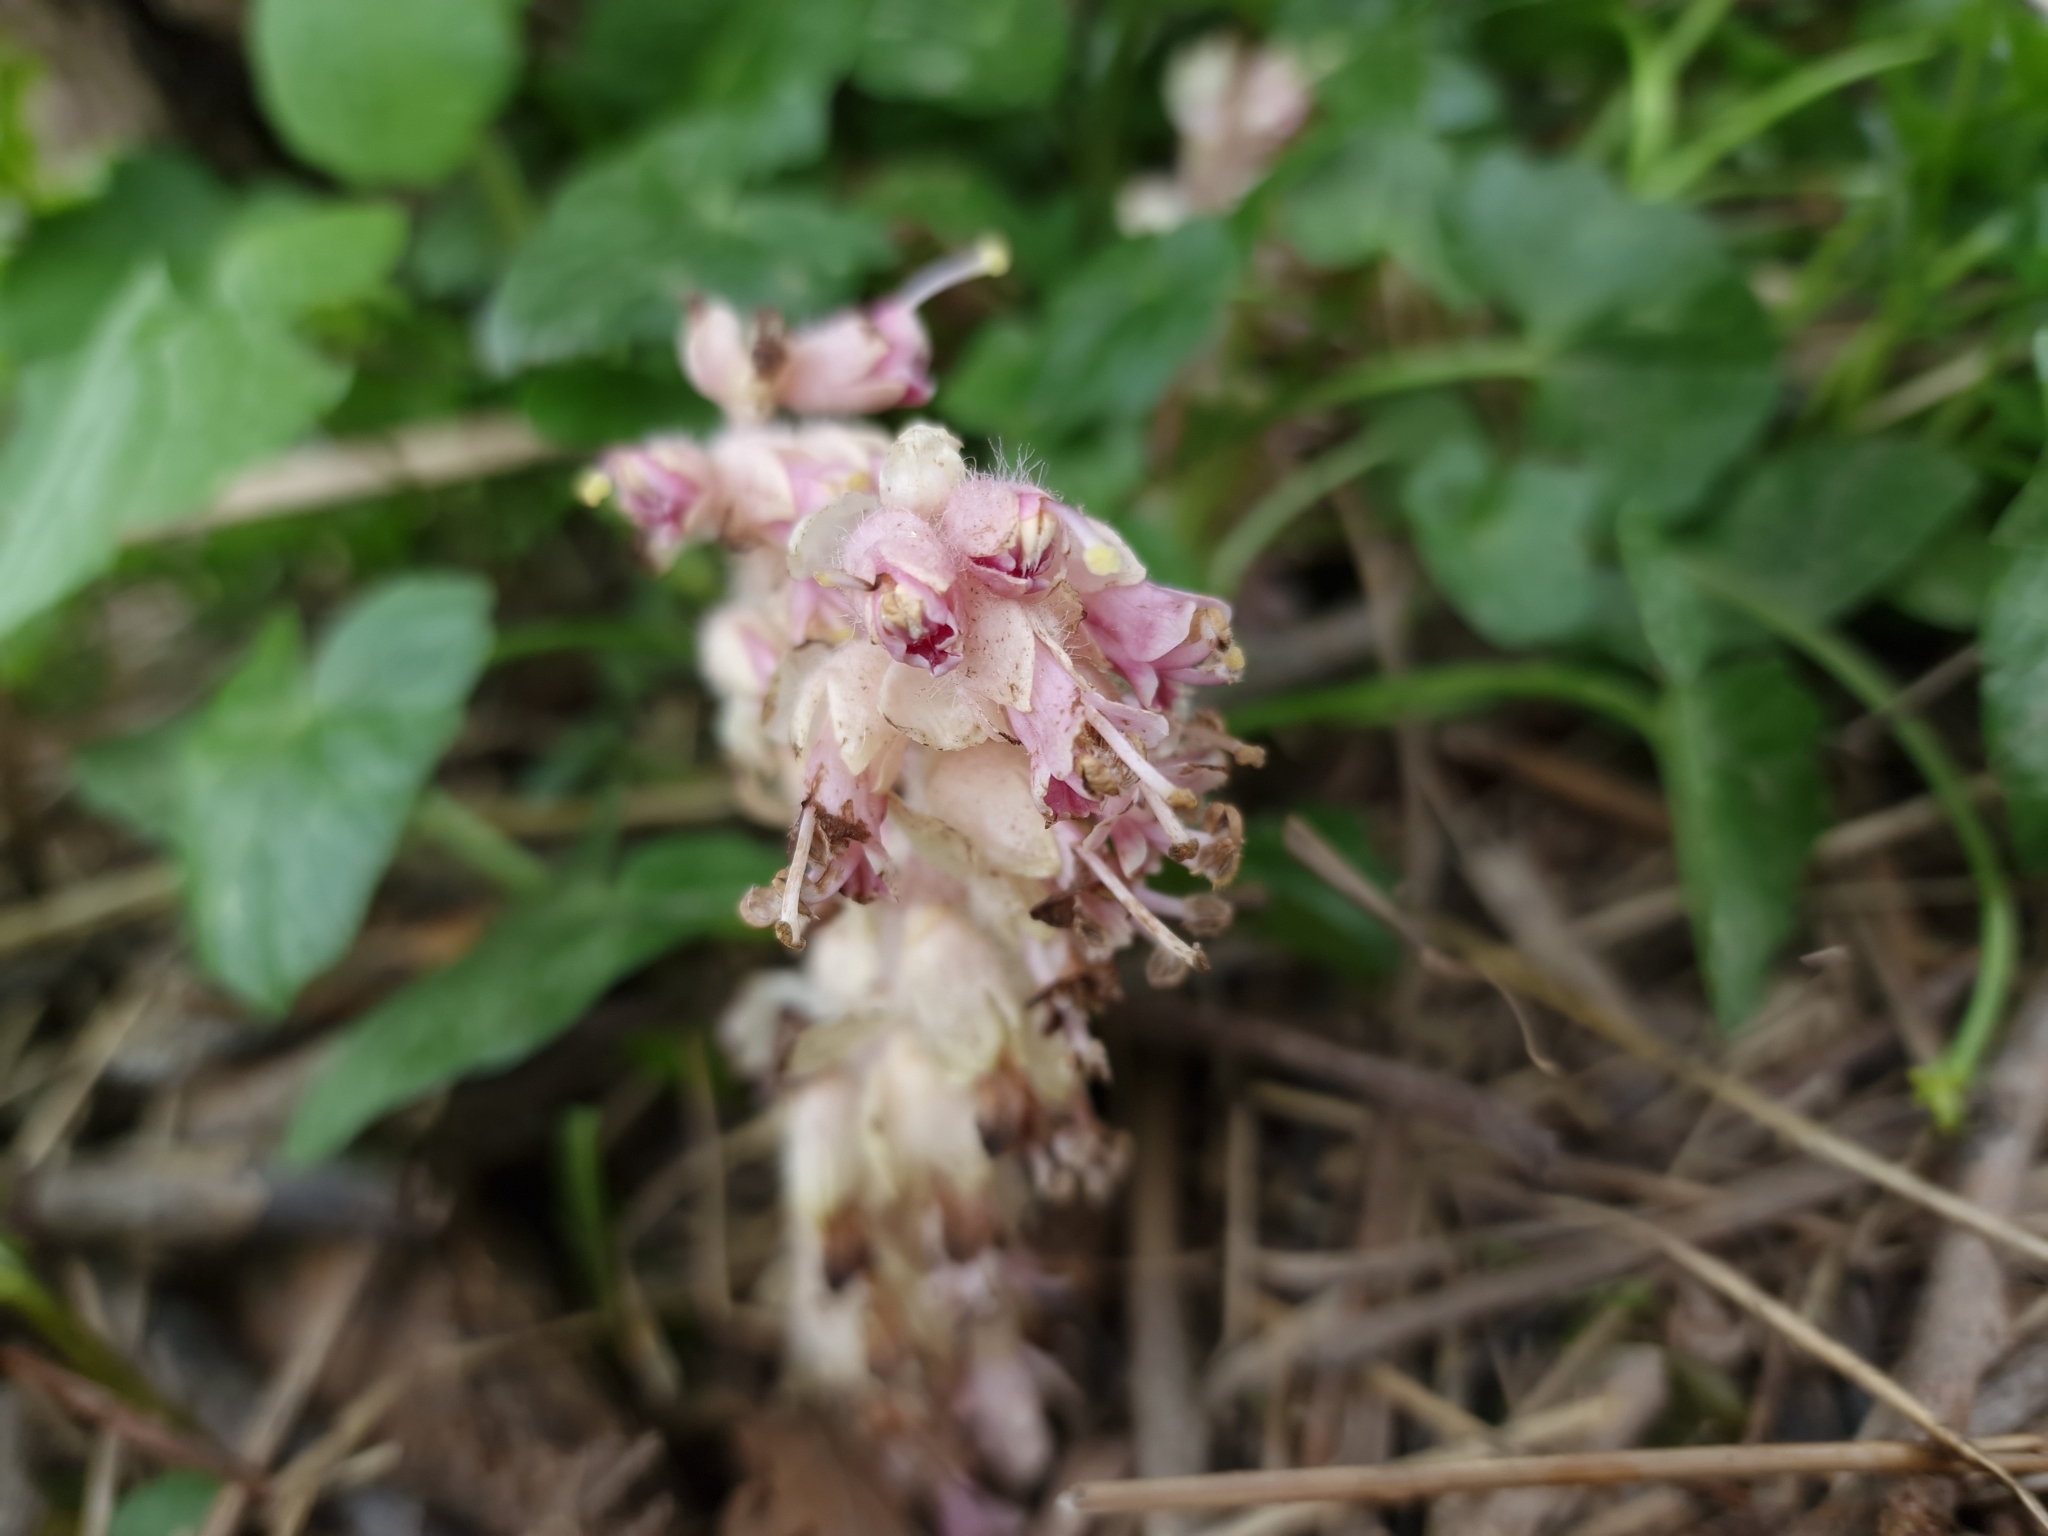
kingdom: Plantae
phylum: Tracheophyta
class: Magnoliopsida
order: Lamiales
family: Orobanchaceae
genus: Lathraea
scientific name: Lathraea squamaria
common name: Toothwort
